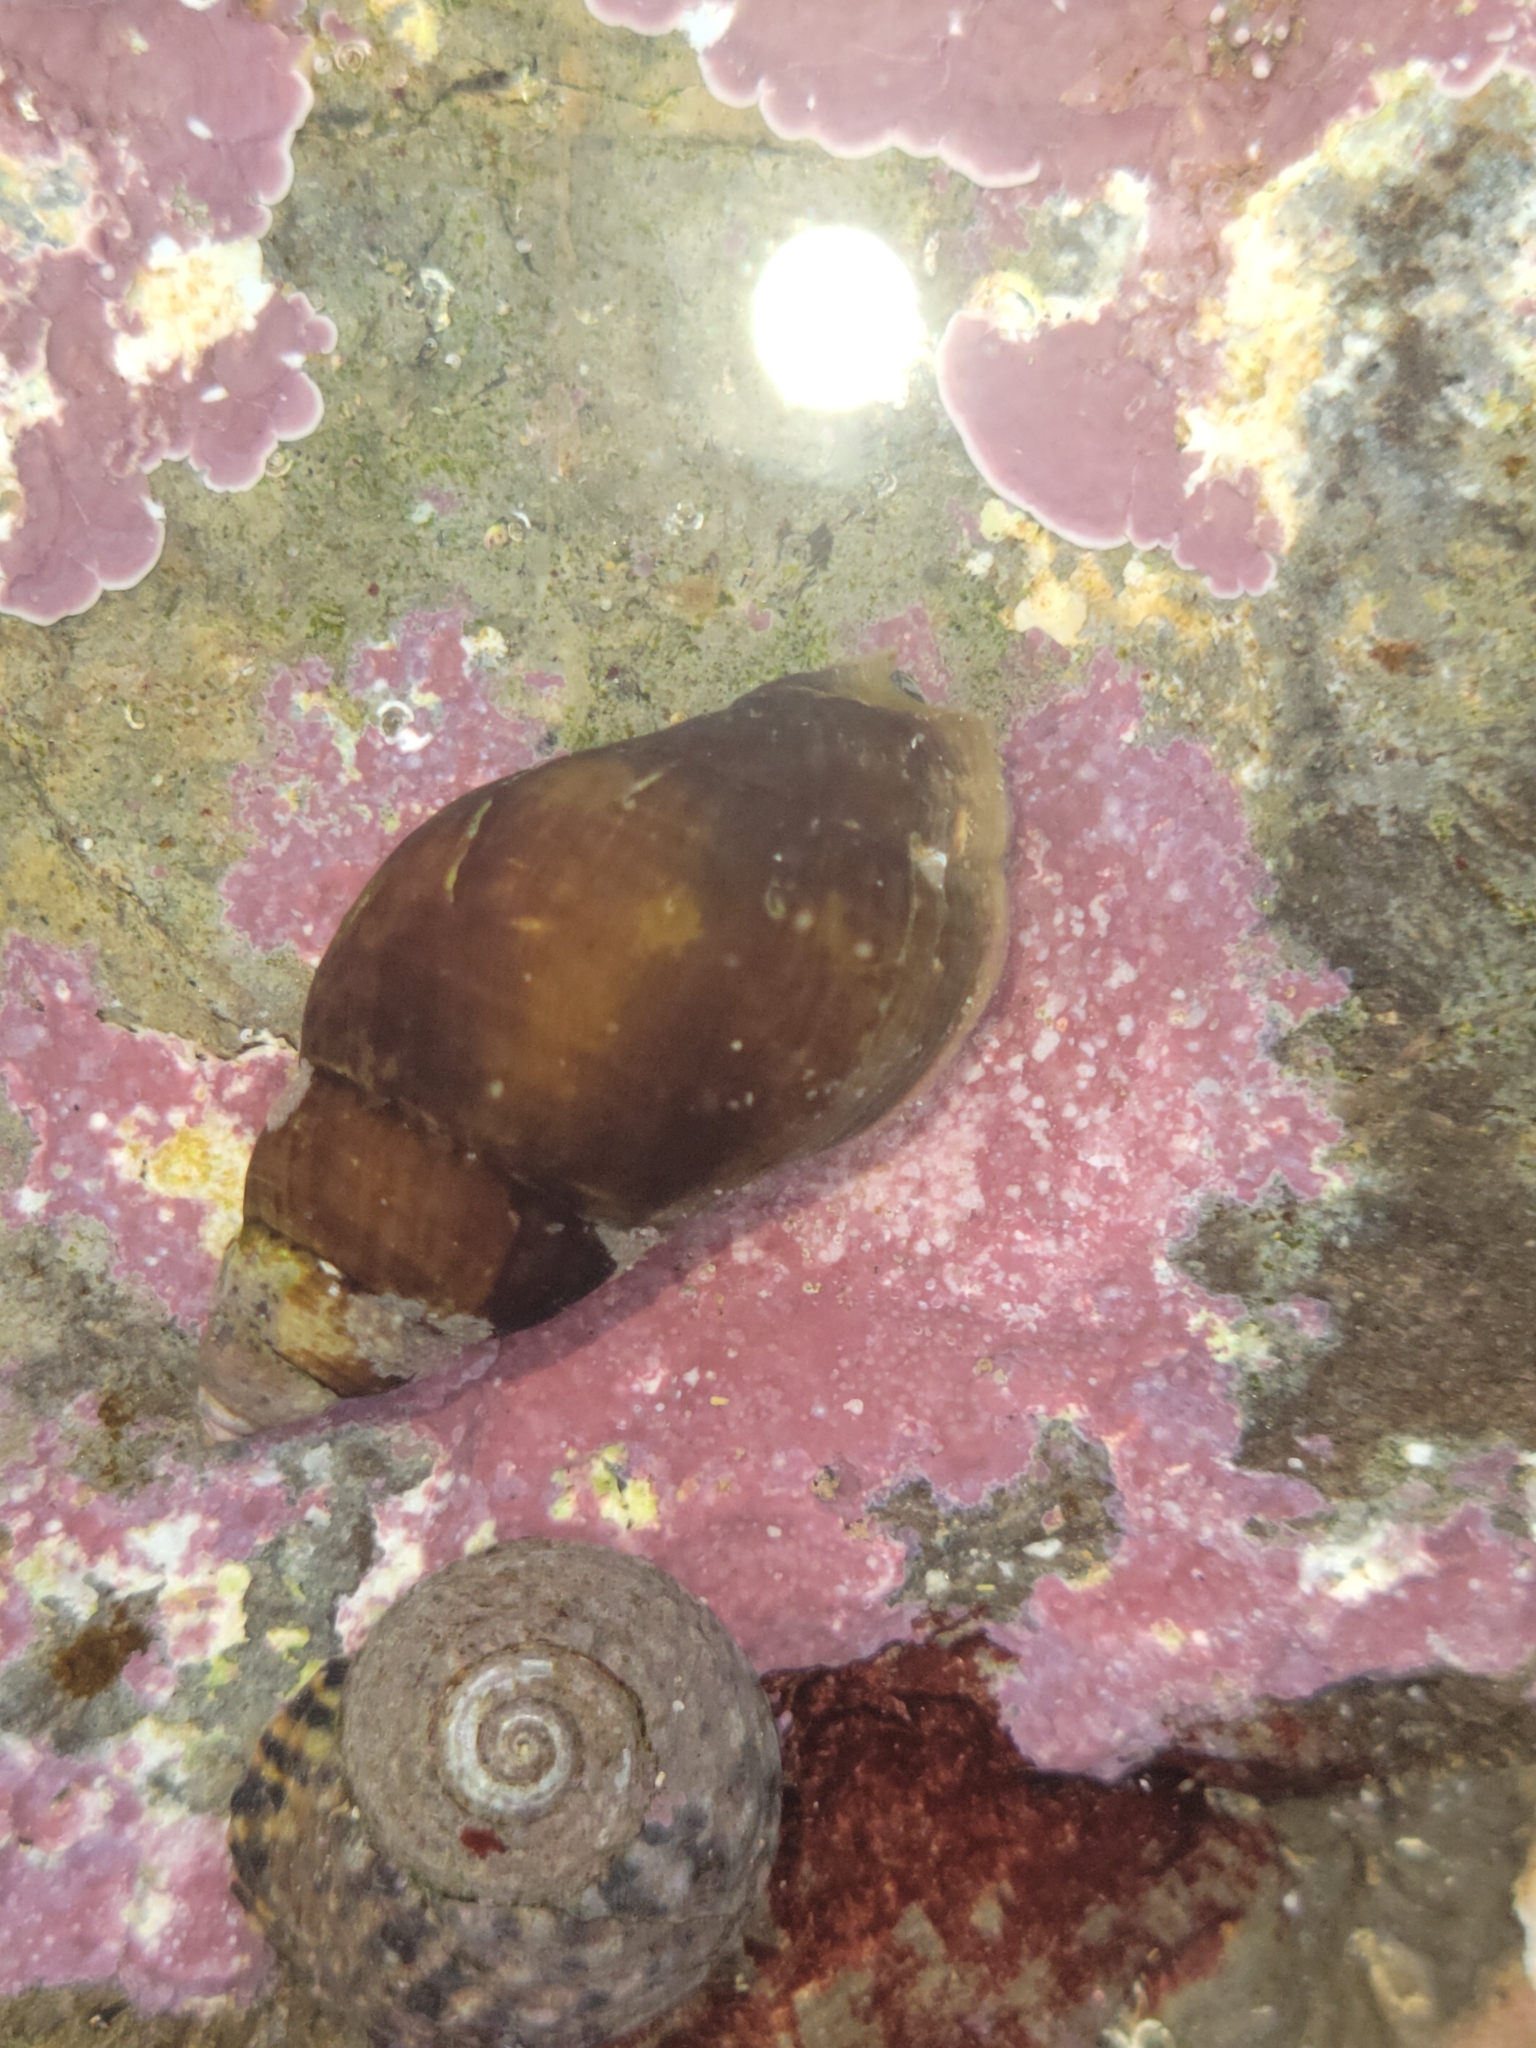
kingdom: Animalia
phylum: Mollusca
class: Gastropoda
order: Neogastropoda
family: Pseudolividae
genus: Macron
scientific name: Macron lividus
